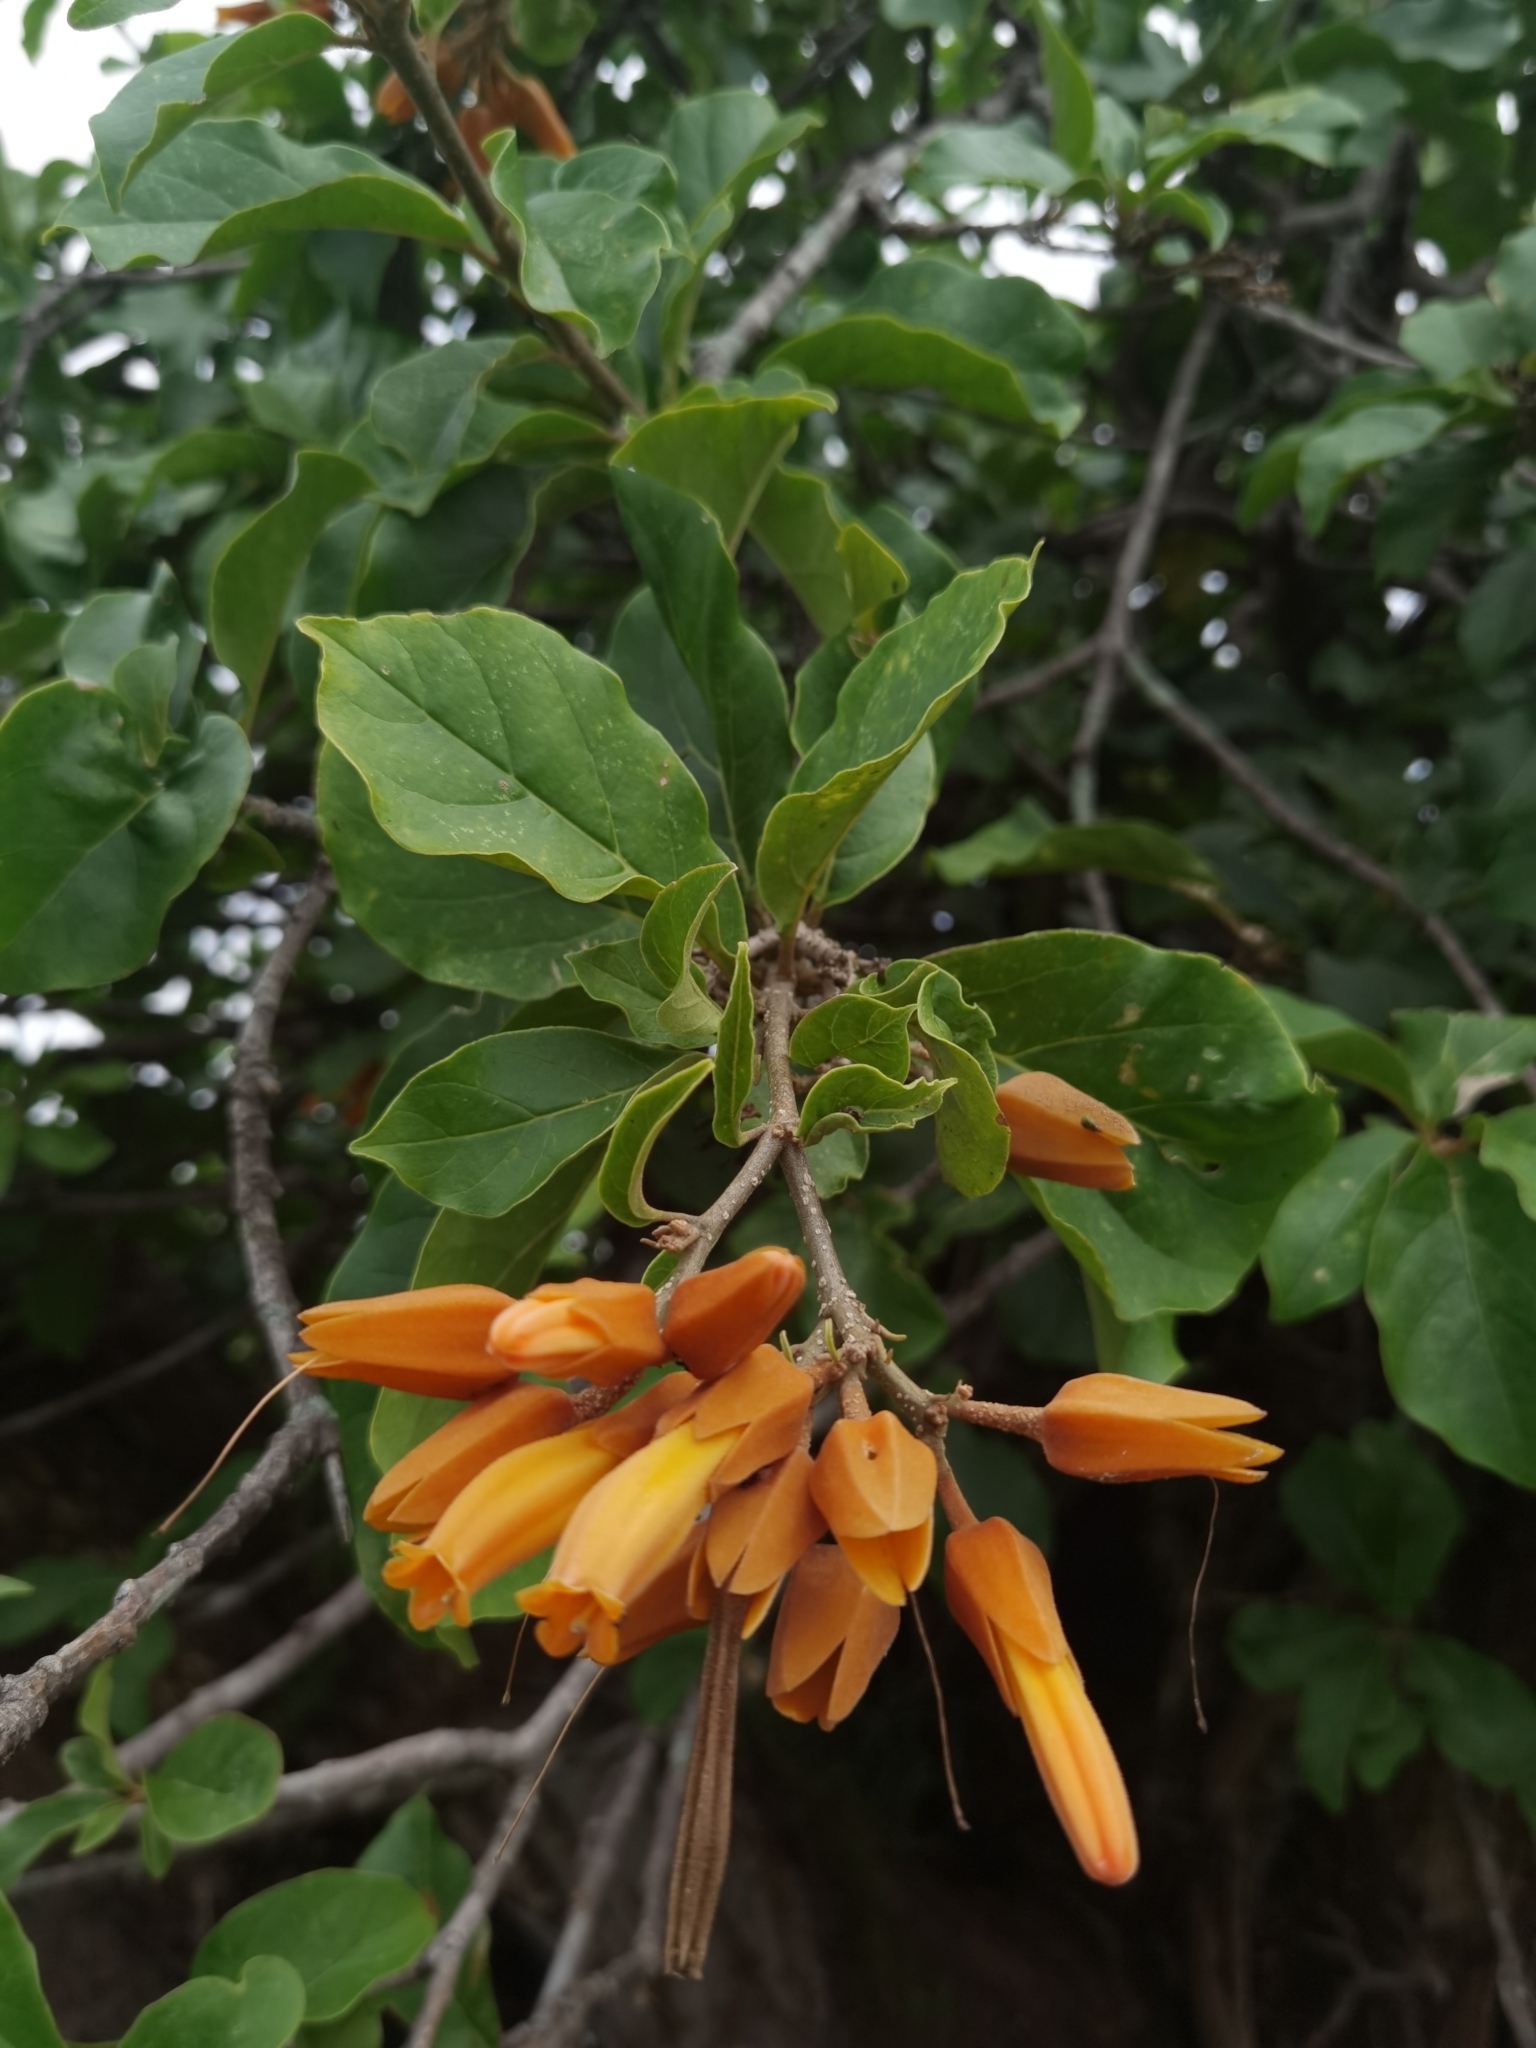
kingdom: Plantae
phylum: Tracheophyta
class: Magnoliopsida
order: Solanales
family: Solanaceae
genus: Juanulloa
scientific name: Juanulloa mexicana
